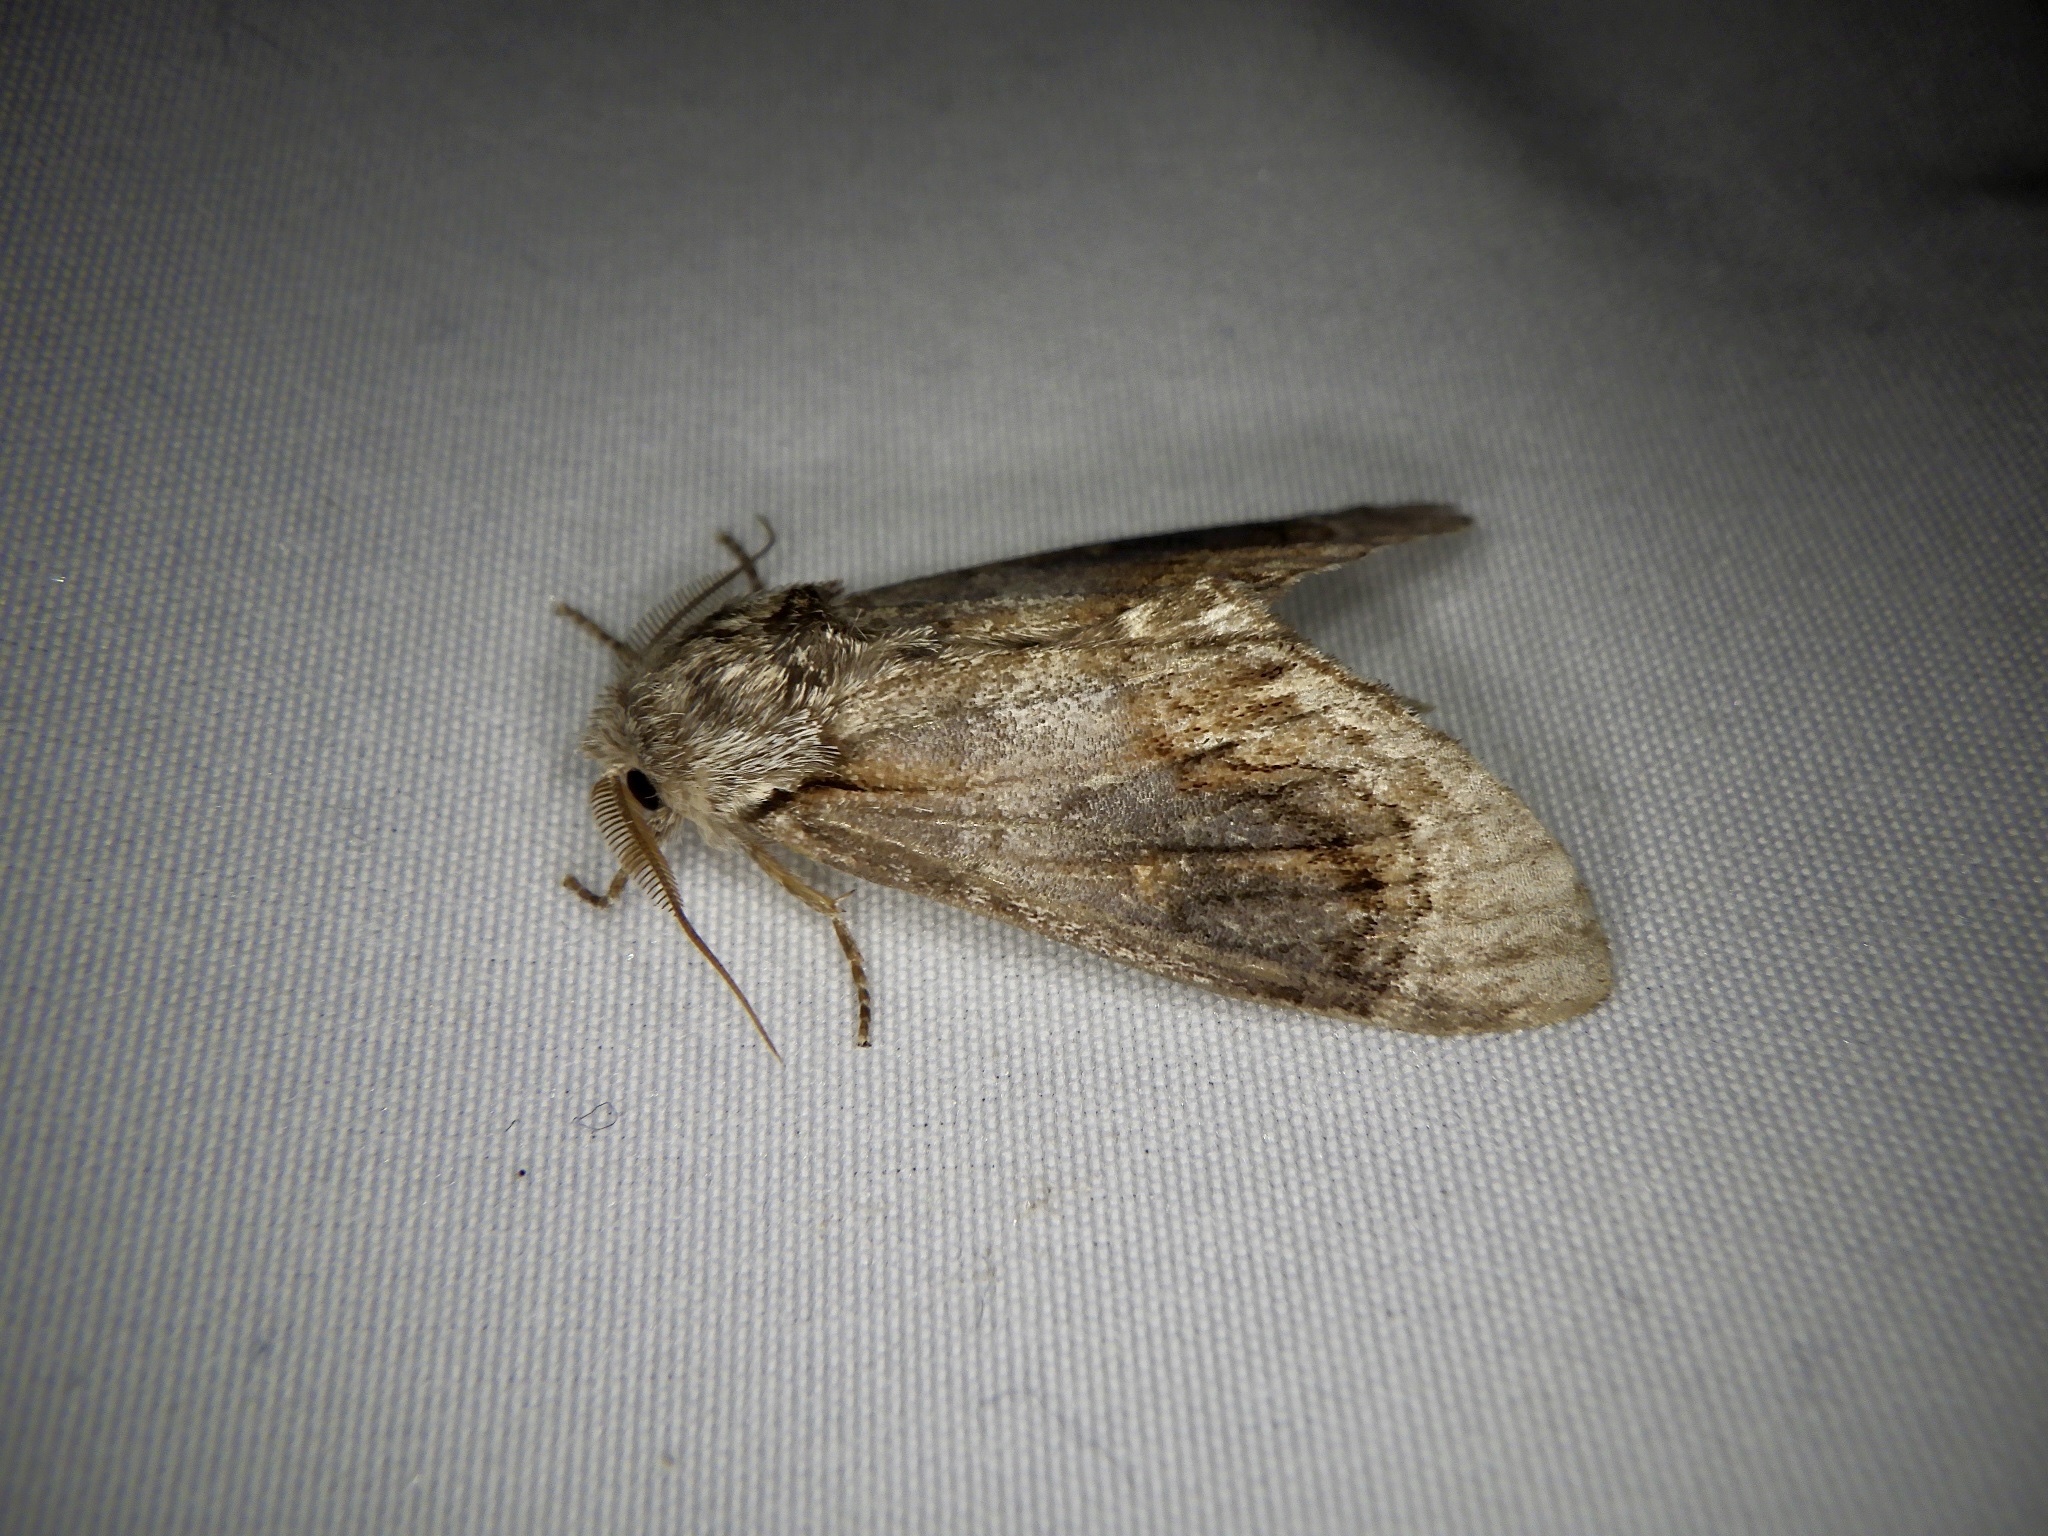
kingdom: Animalia
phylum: Arthropoda
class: Insecta
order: Lepidoptera
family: Notodontidae
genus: Fentonia
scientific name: Fentonia ocypete
